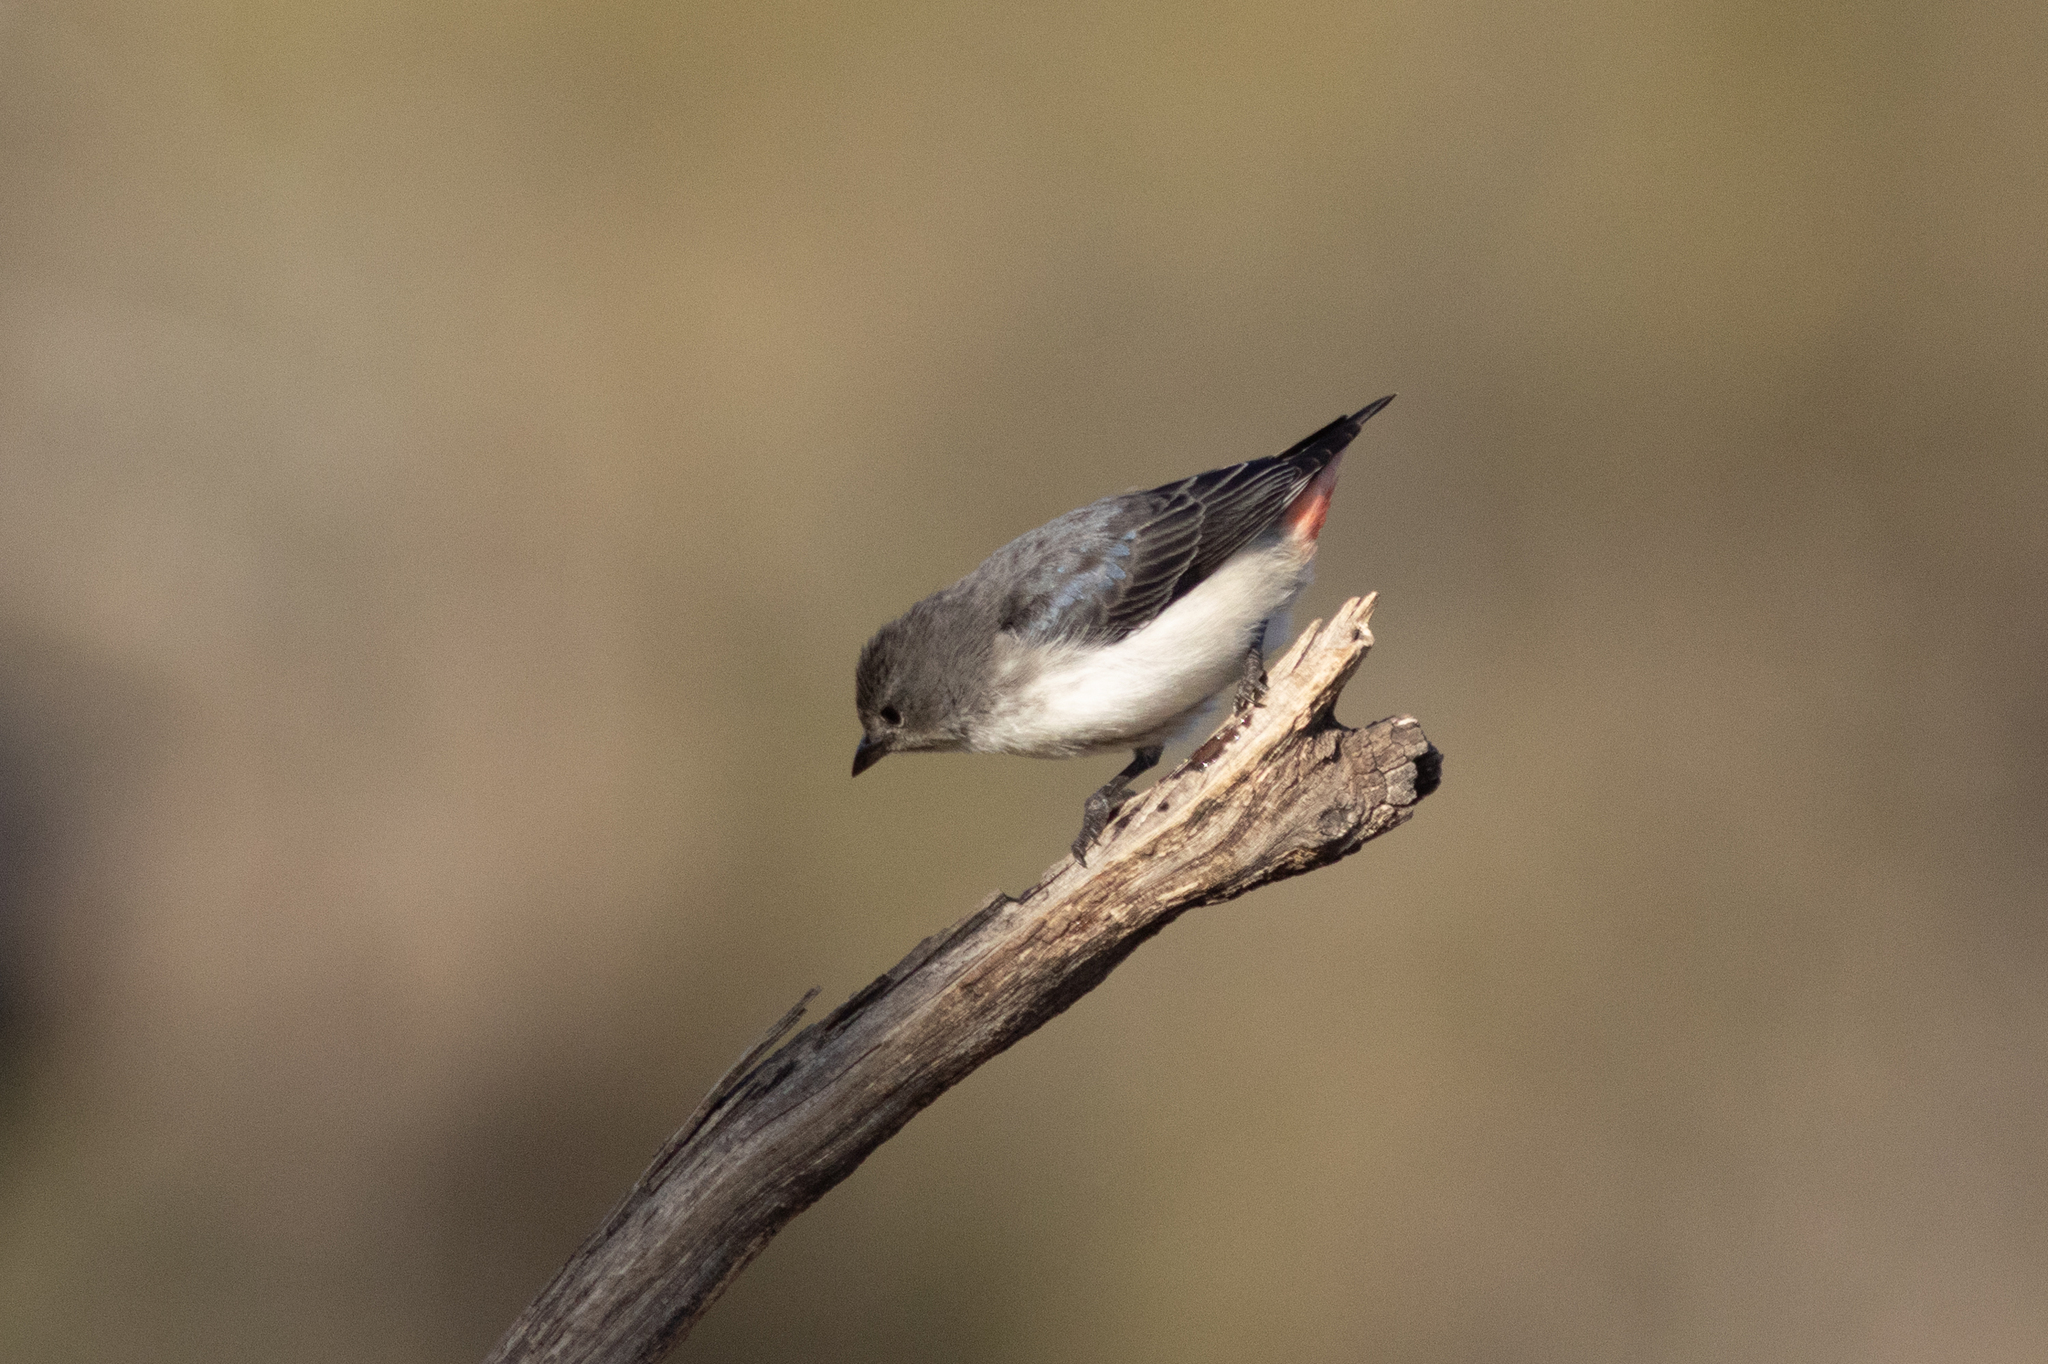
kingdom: Animalia
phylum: Chordata
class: Aves
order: Passeriformes
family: Dicaeidae
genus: Dicaeum
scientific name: Dicaeum hirundinaceum
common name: Mistletoebird
